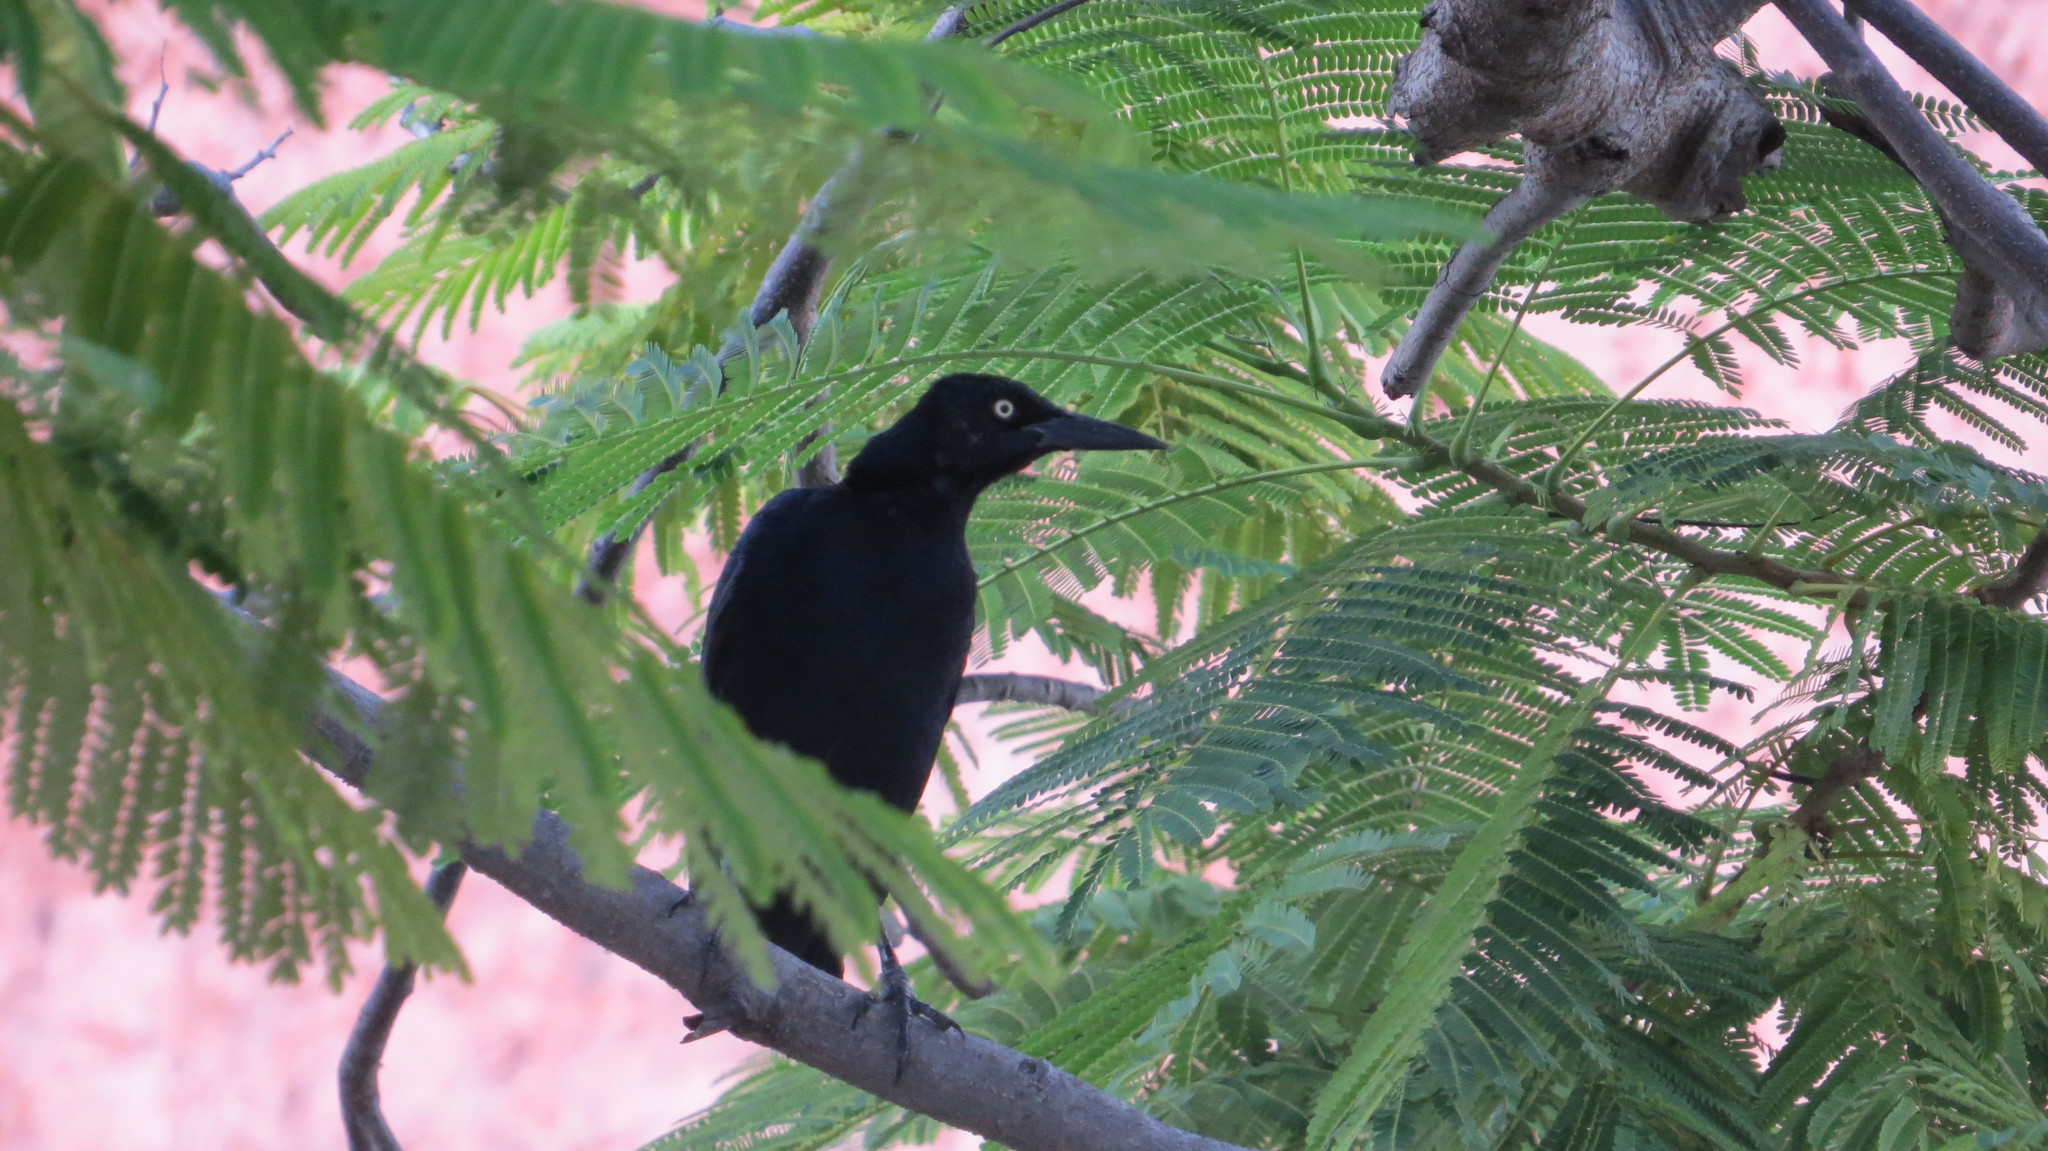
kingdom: Animalia
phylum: Chordata
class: Aves
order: Passeriformes
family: Icteridae
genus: Quiscalus
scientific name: Quiscalus mexicanus
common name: Great-tailed grackle
